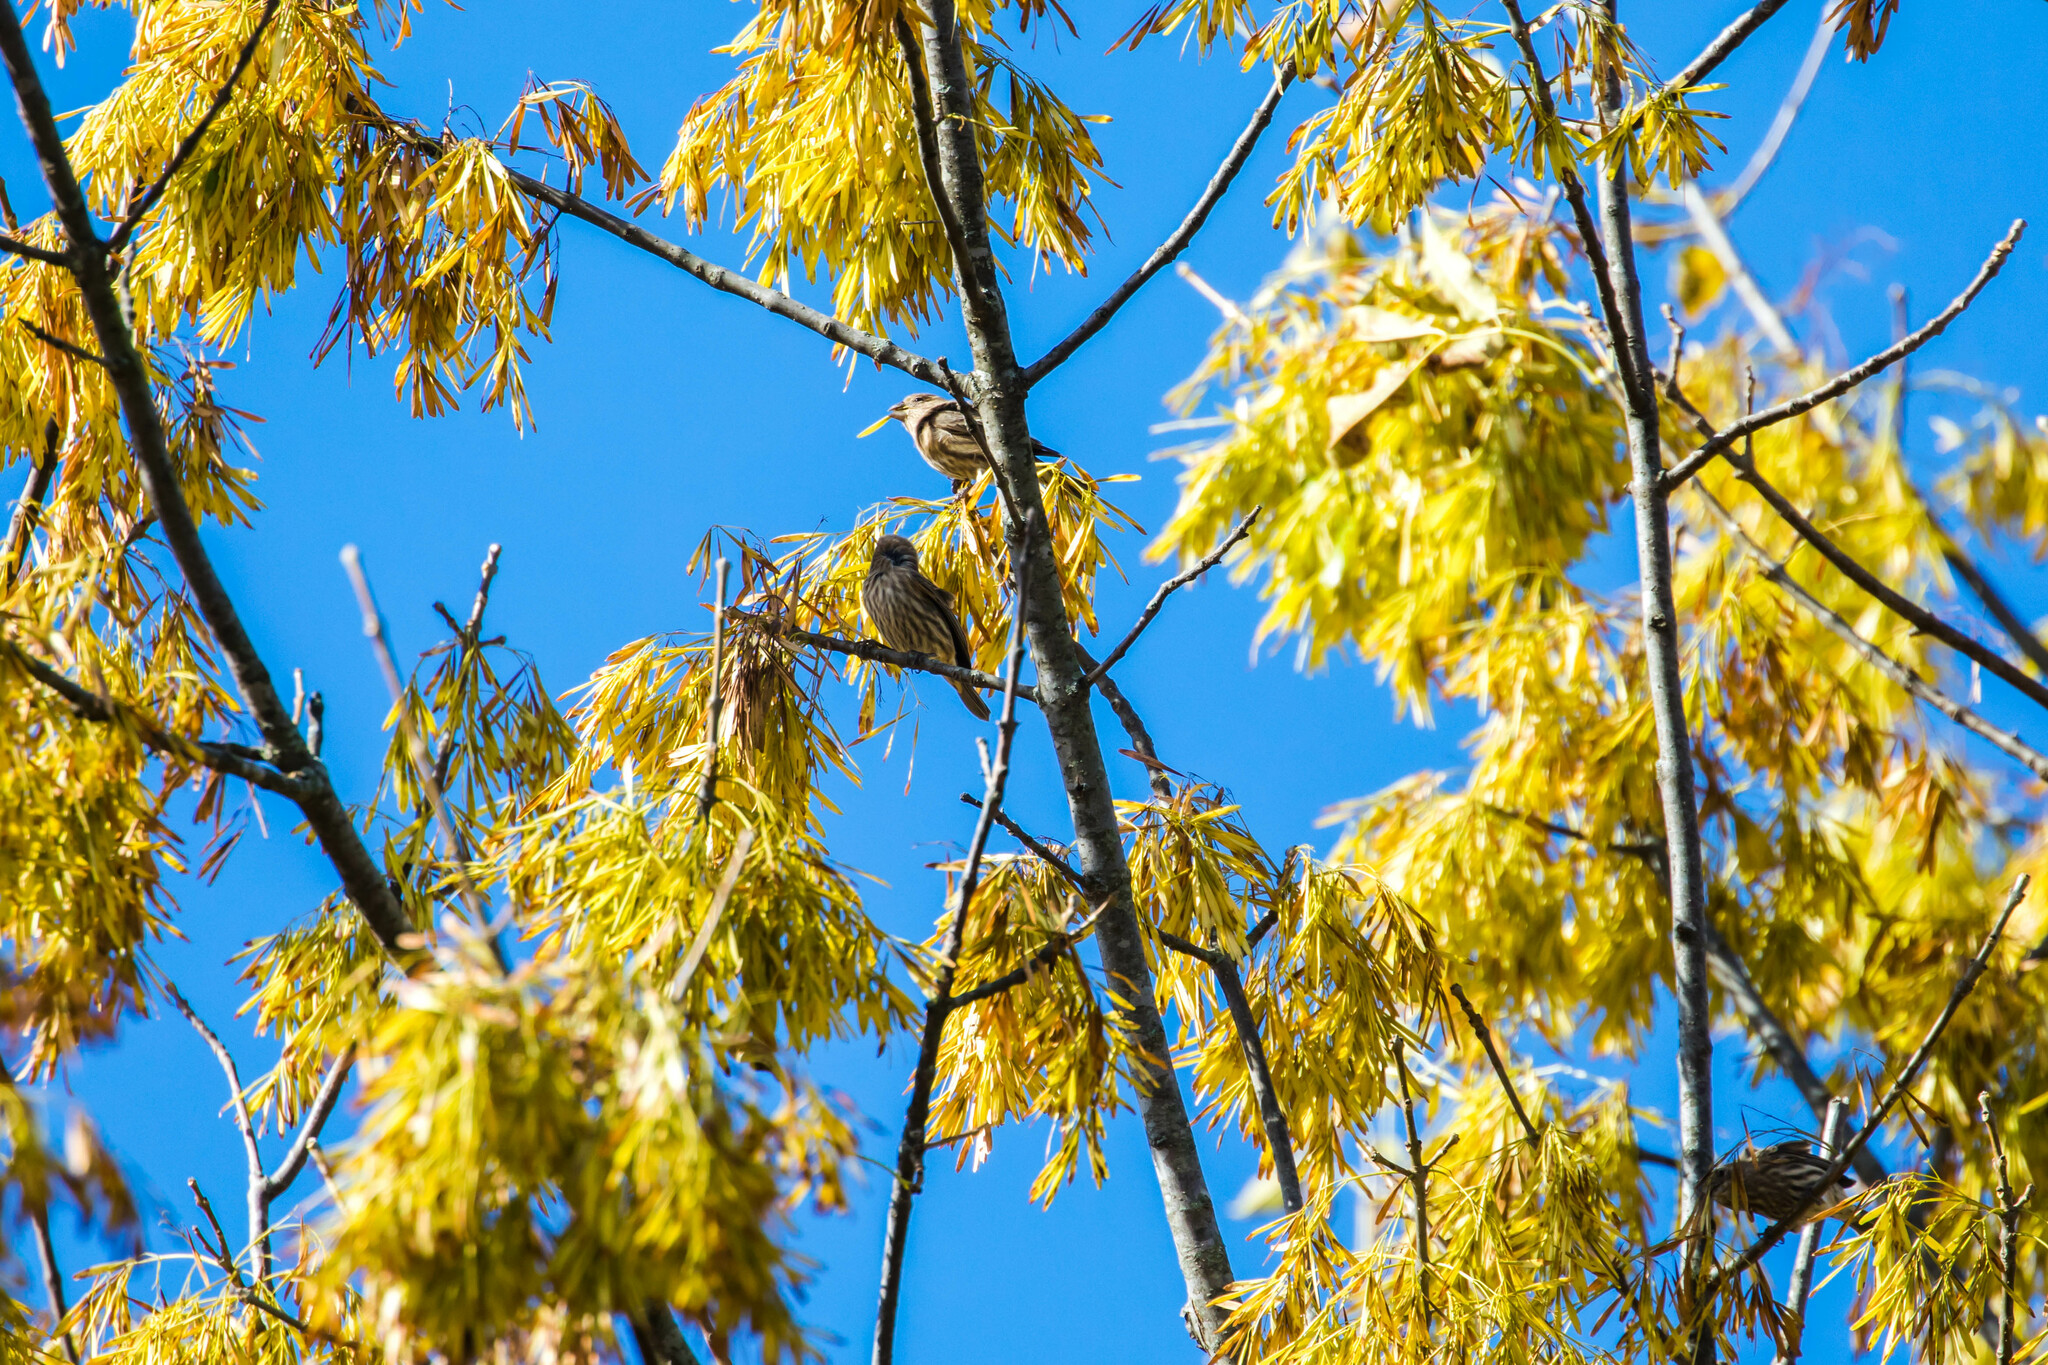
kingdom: Animalia
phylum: Chordata
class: Aves
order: Passeriformes
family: Fringillidae
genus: Haemorhous
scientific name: Haemorhous mexicanus
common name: House finch
